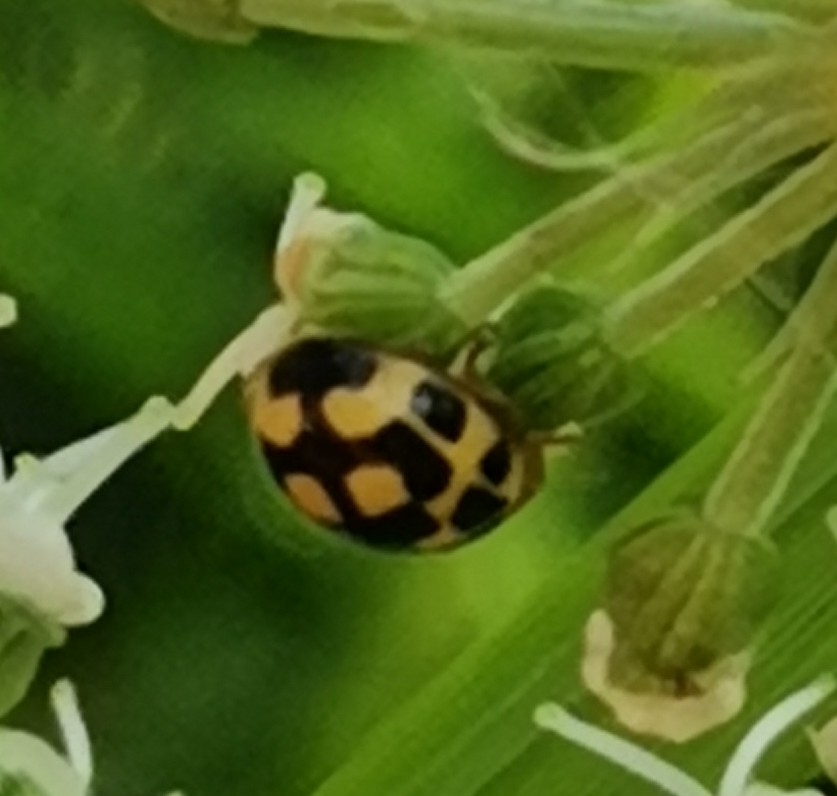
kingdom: Animalia
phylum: Arthropoda
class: Insecta
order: Coleoptera
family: Coccinellidae
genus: Propylaea
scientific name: Propylaea quatuordecimpunctata
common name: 14-spotted ladybird beetle
